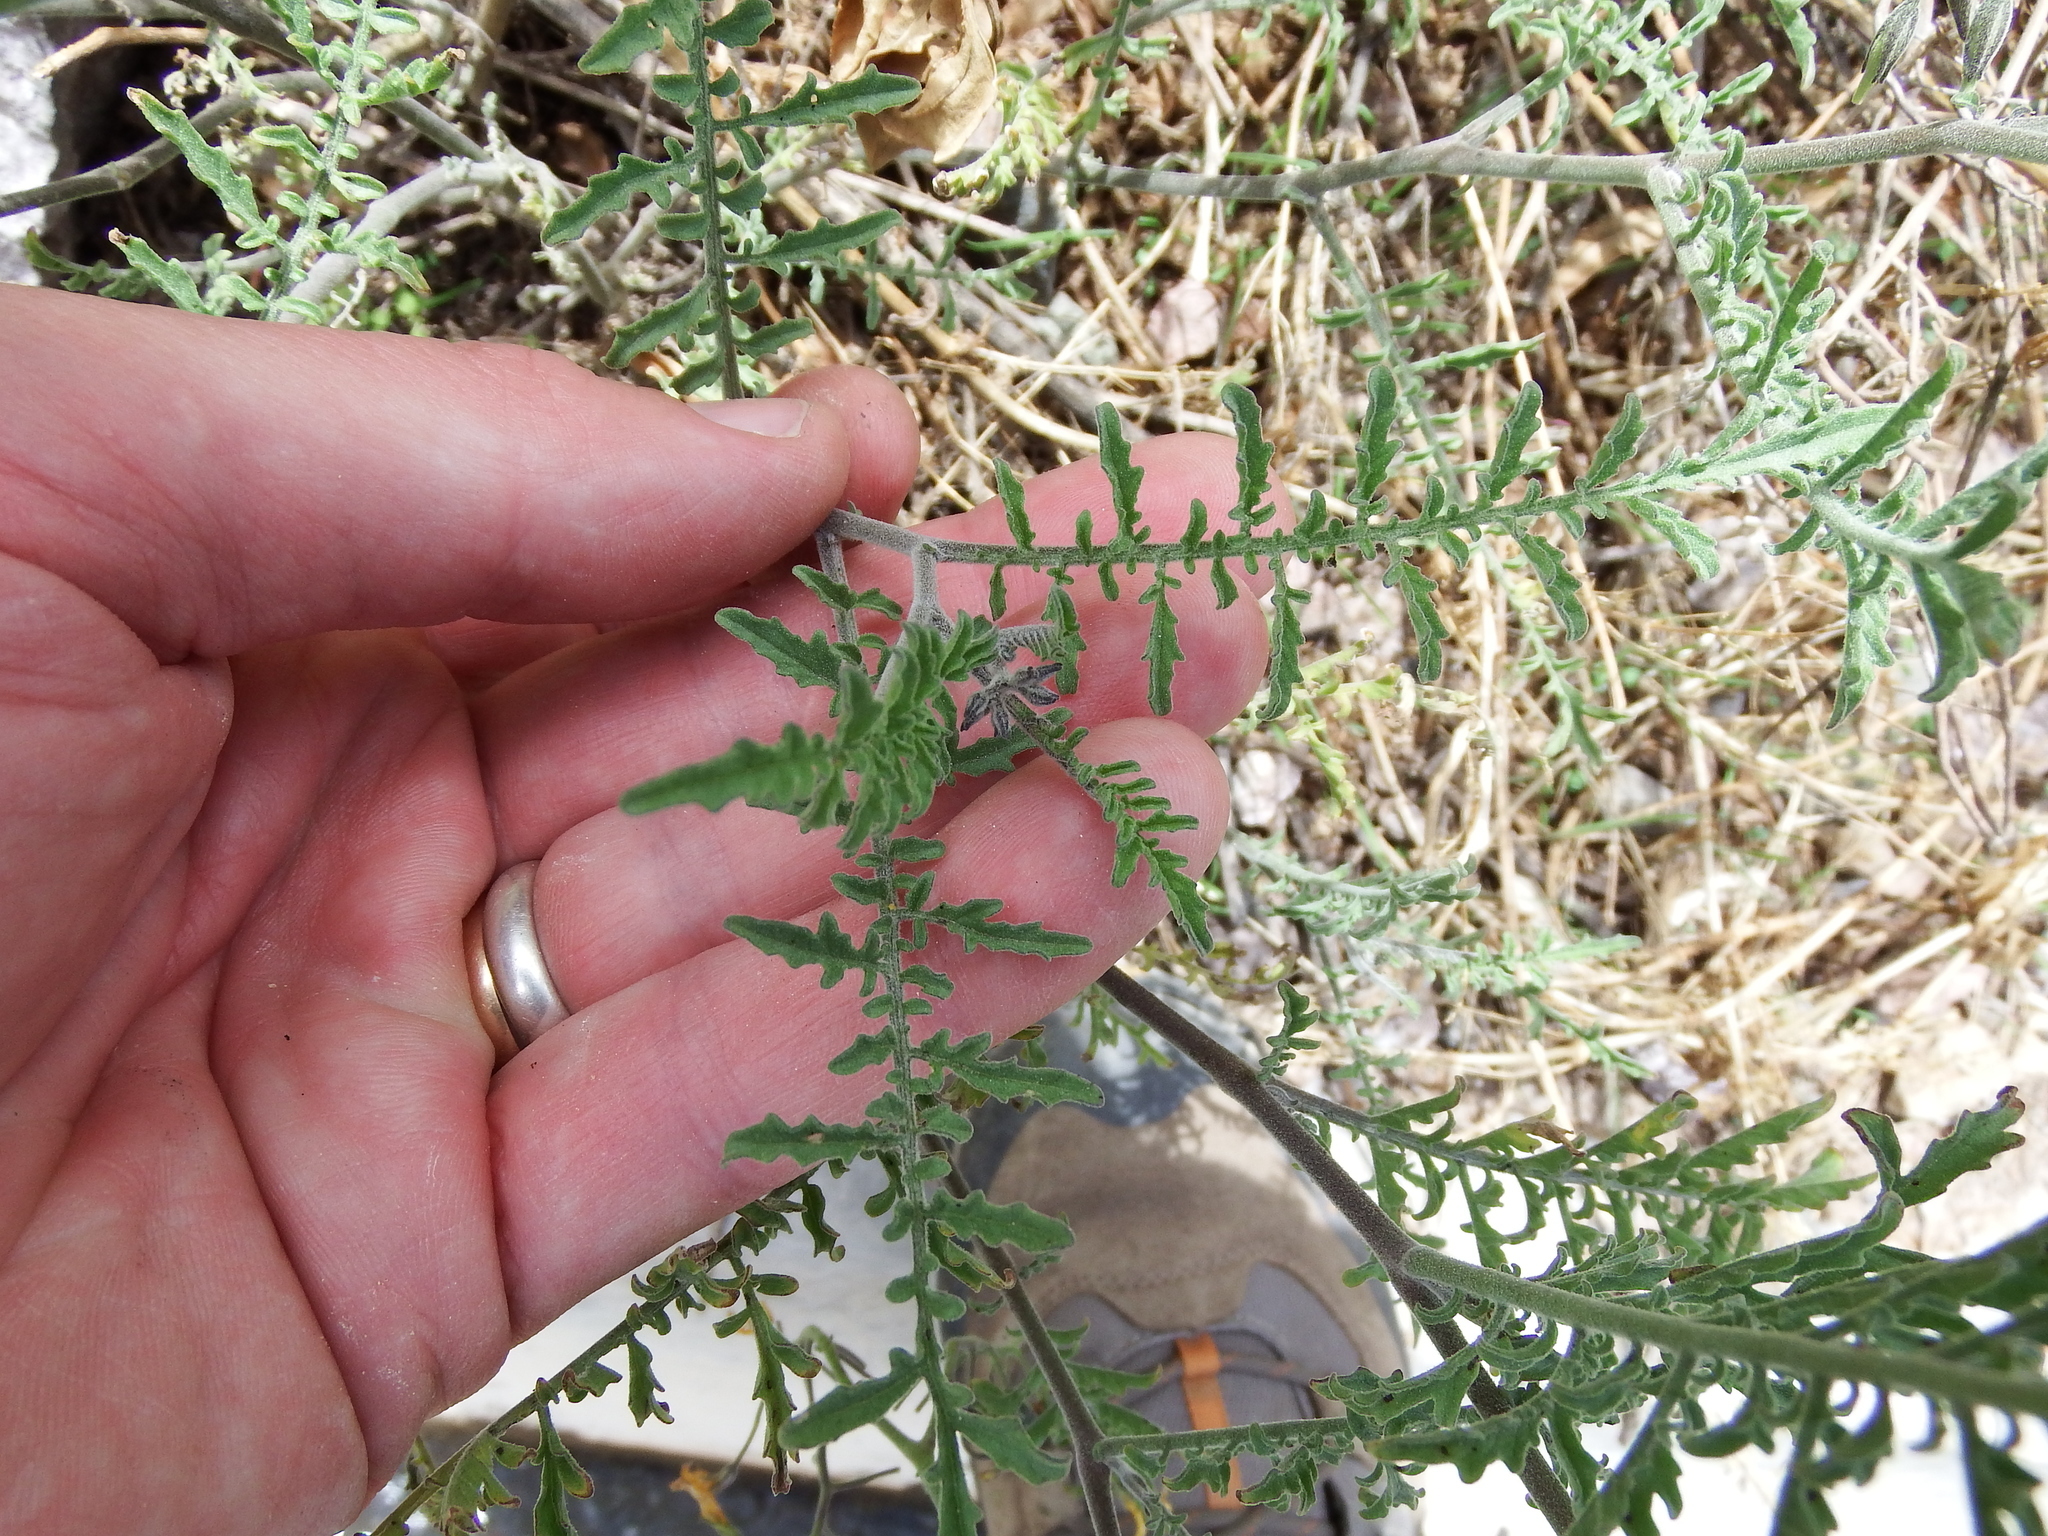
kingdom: Plantae
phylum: Tracheophyta
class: Magnoliopsida
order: Solanales
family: Solanaceae
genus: Solanum
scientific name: Solanum chilense
